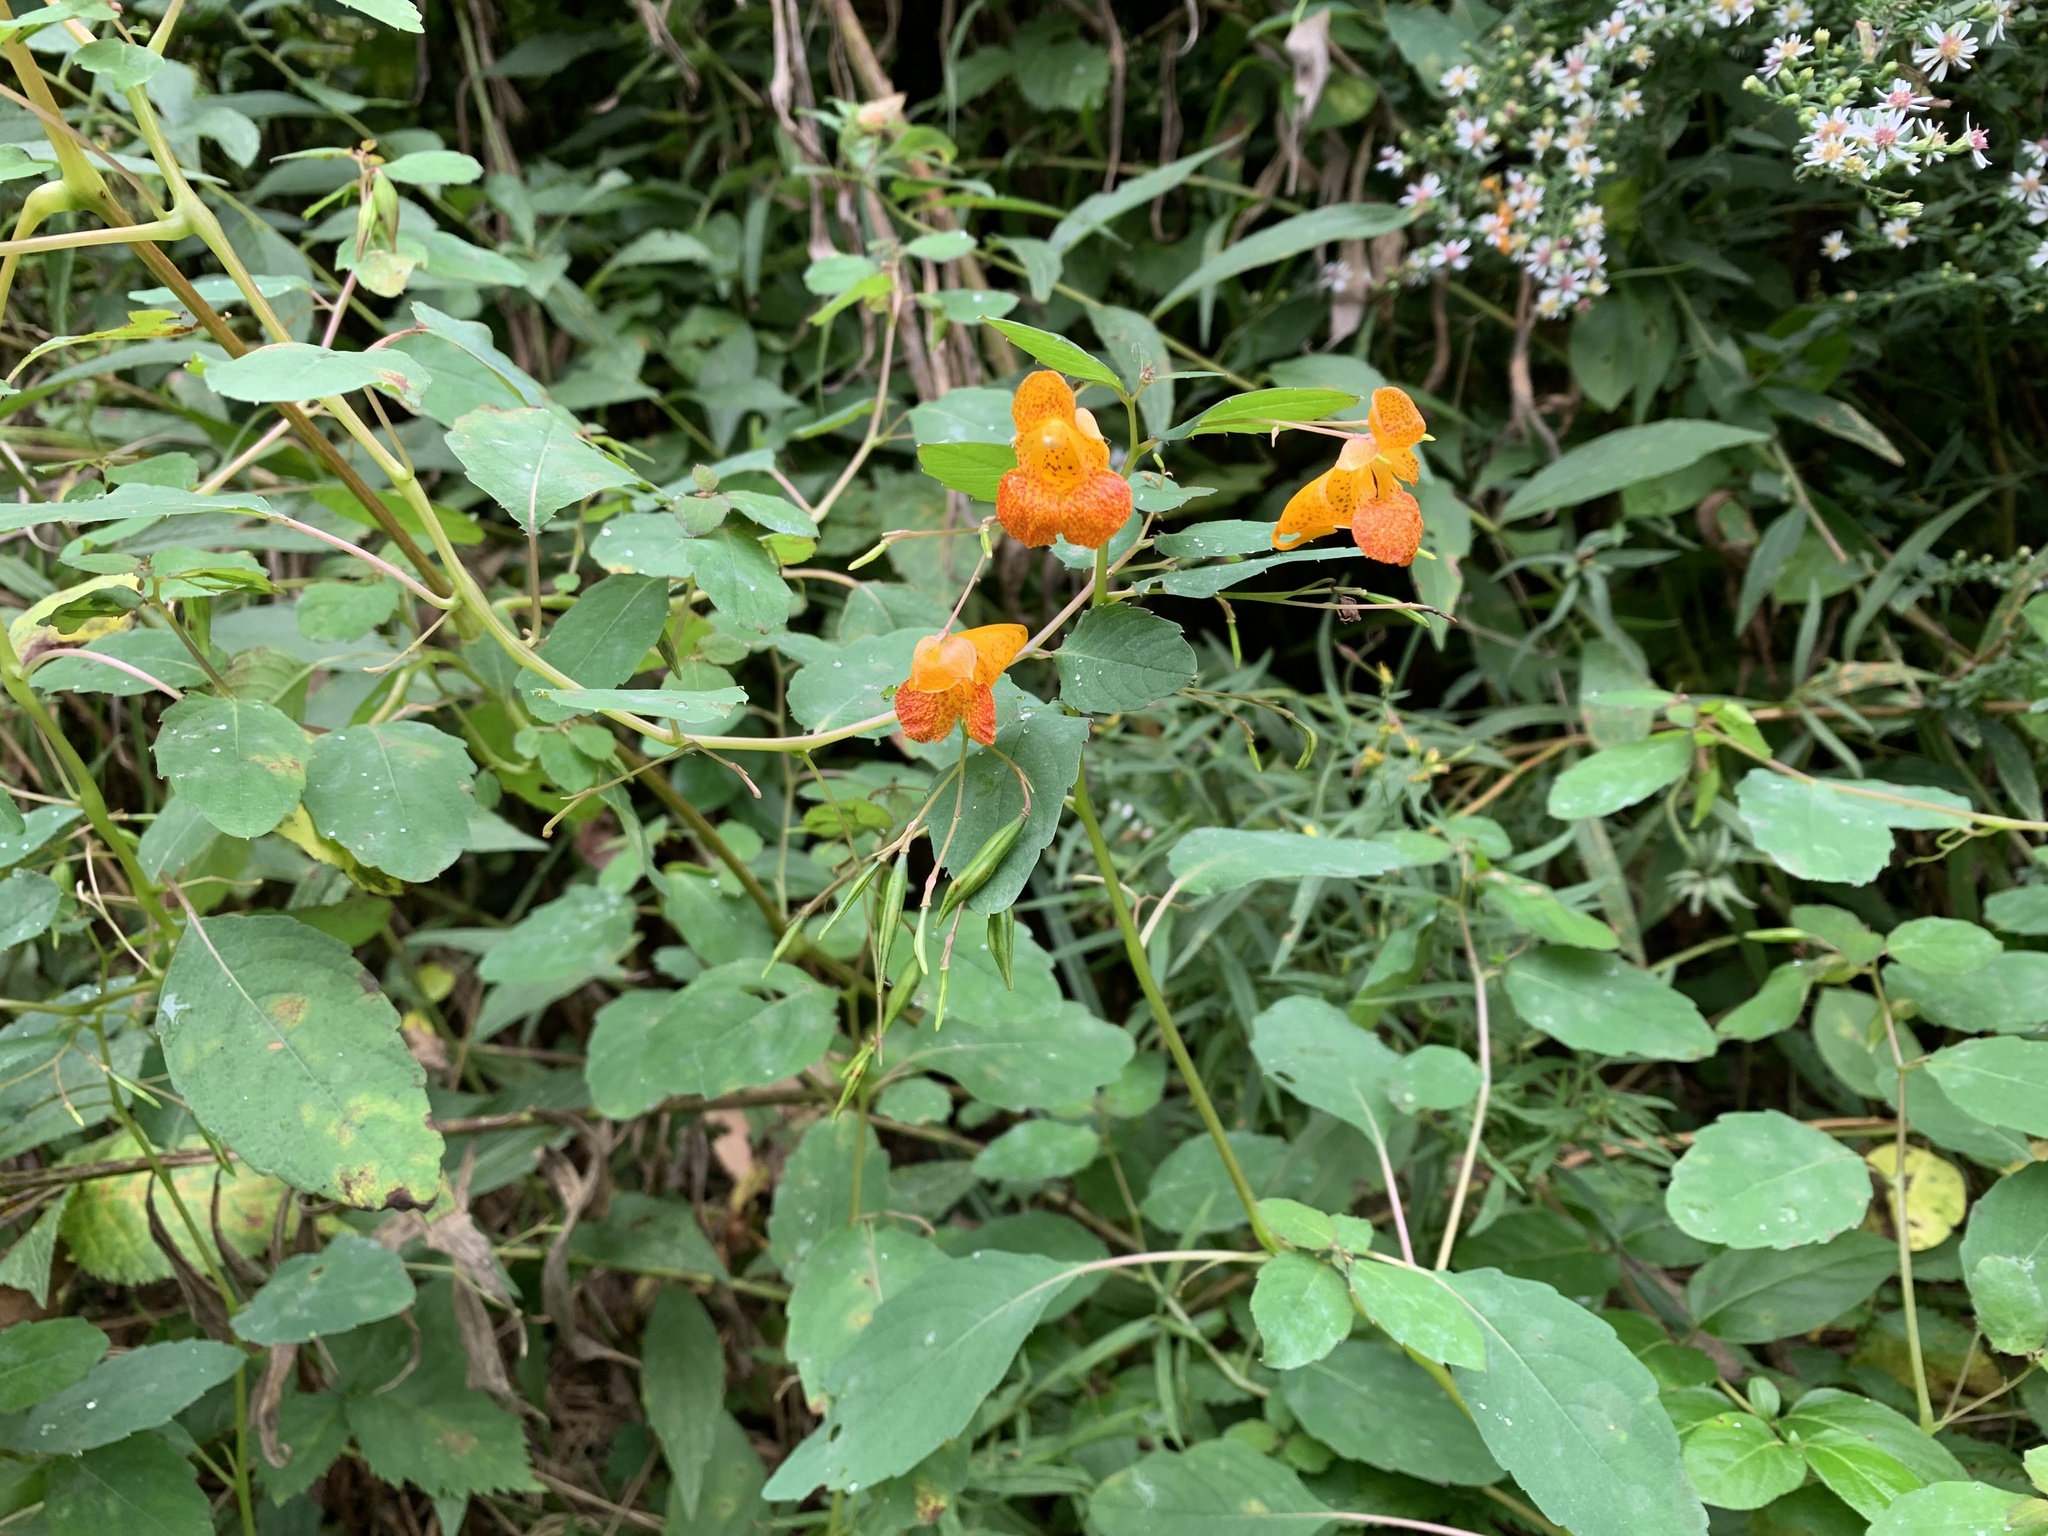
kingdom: Plantae
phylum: Tracheophyta
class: Magnoliopsida
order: Ericales
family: Balsaminaceae
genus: Impatiens
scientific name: Impatiens capensis
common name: Orange balsam
